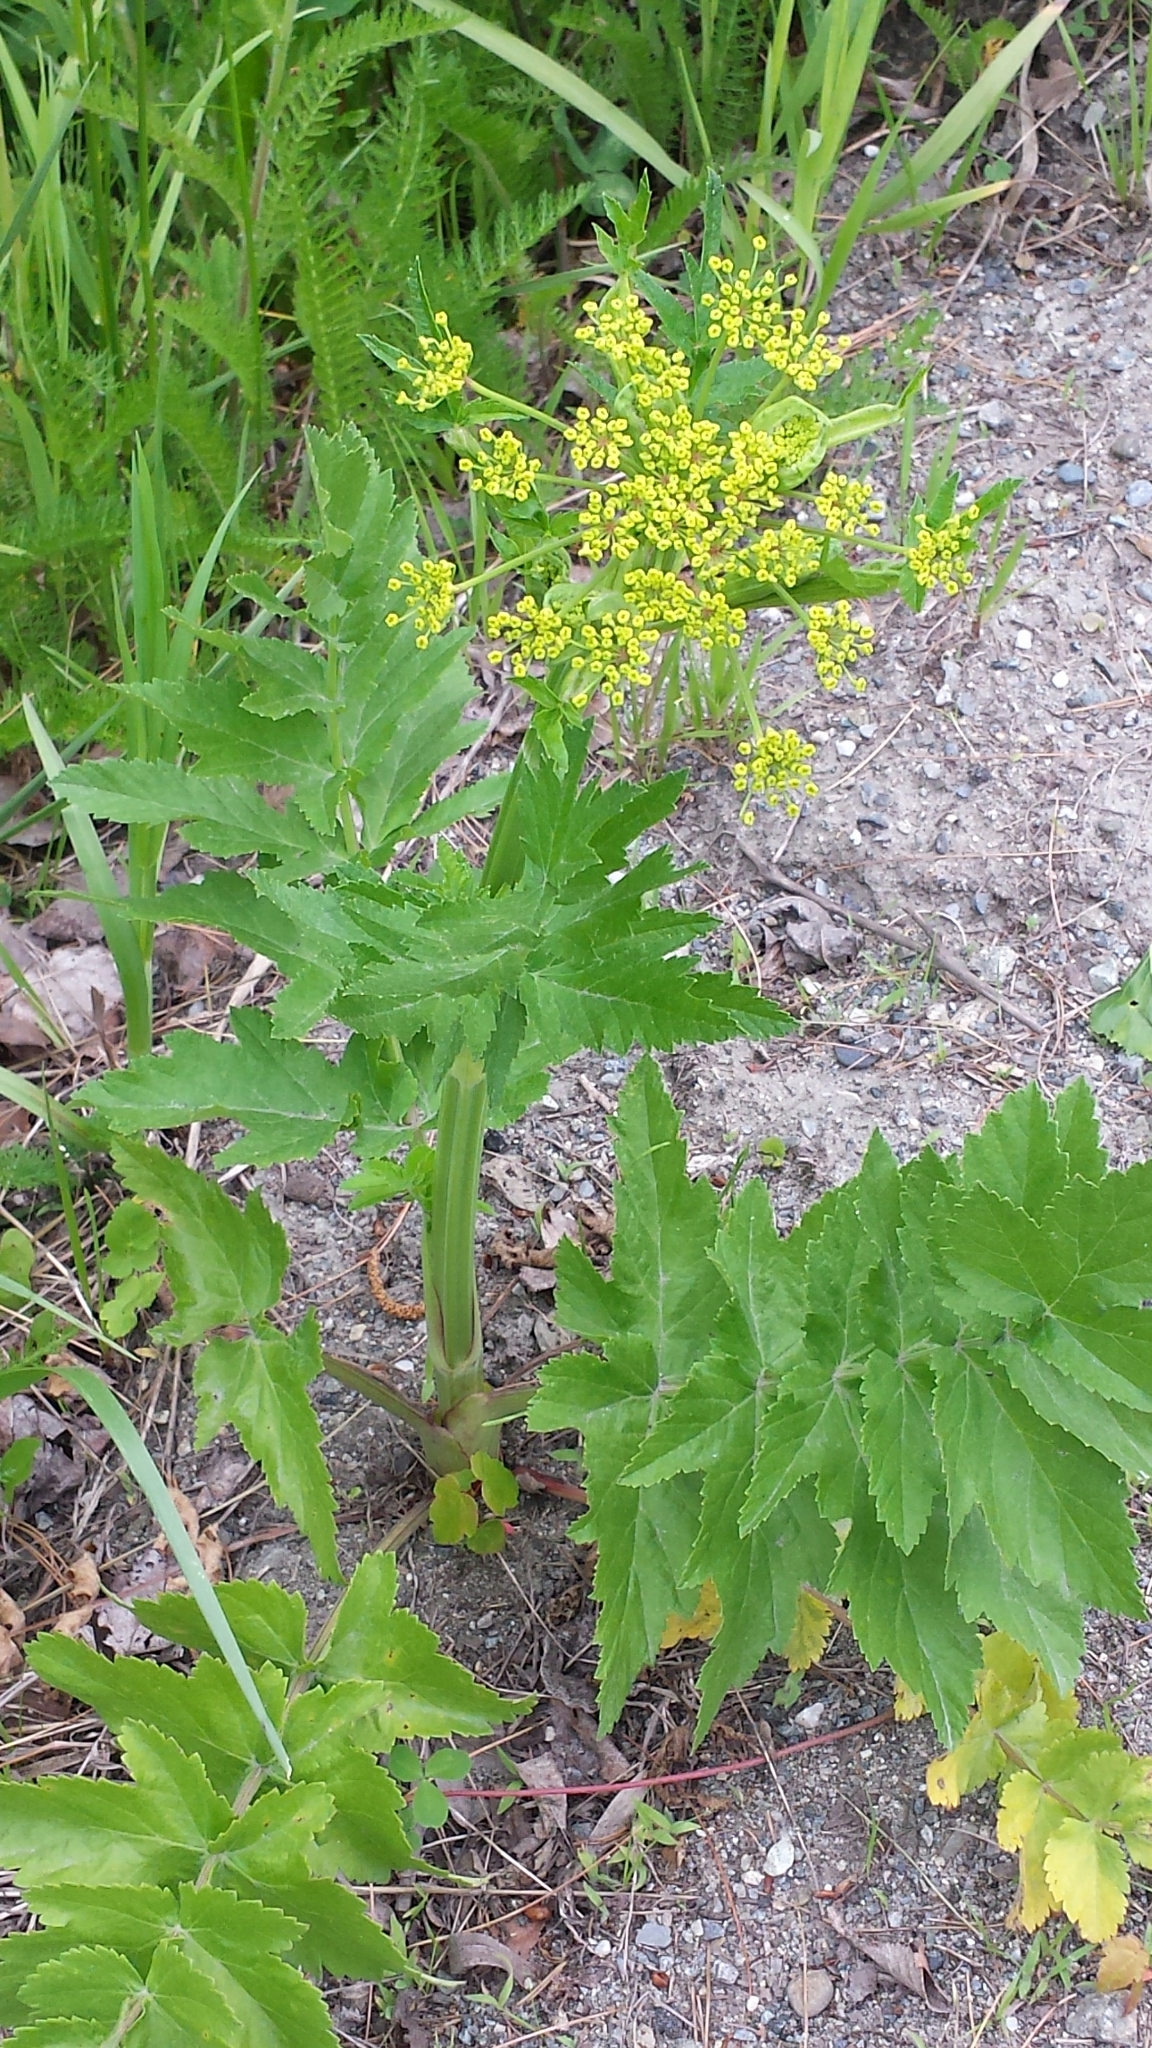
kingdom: Plantae
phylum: Tracheophyta
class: Magnoliopsida
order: Apiales
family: Apiaceae
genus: Pastinaca
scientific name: Pastinaca sativa
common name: Wild parsnip
